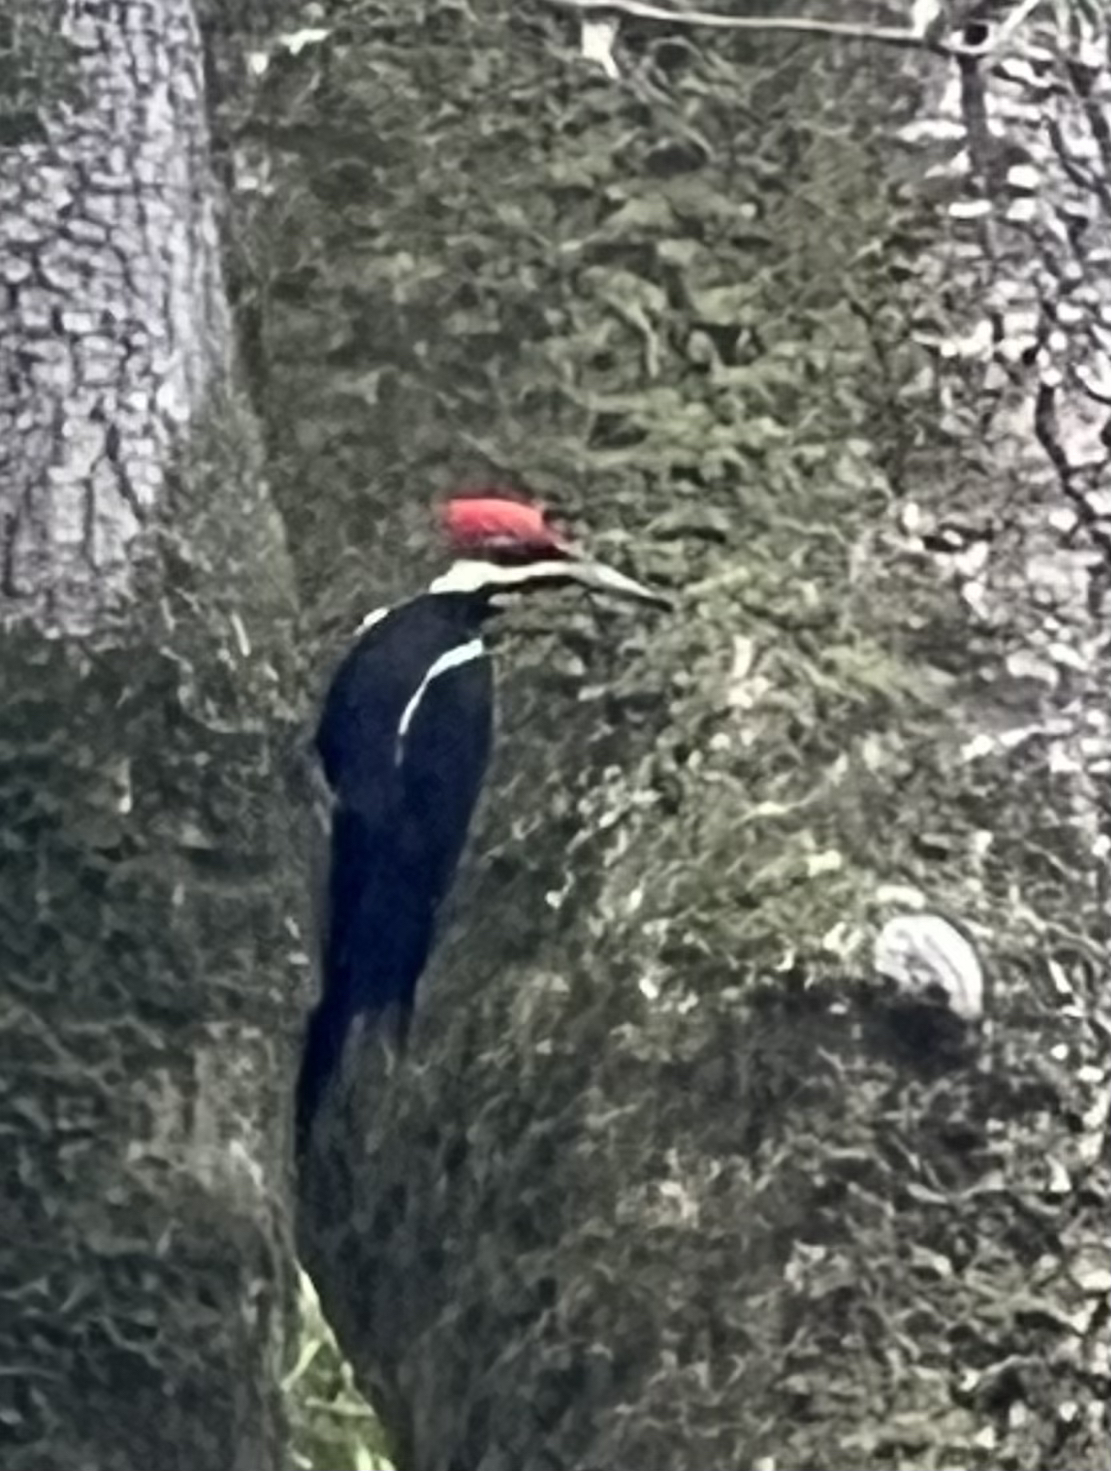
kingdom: Animalia
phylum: Chordata
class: Aves
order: Piciformes
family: Picidae
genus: Dryocopus
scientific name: Dryocopus pileatus
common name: Pileated woodpecker
